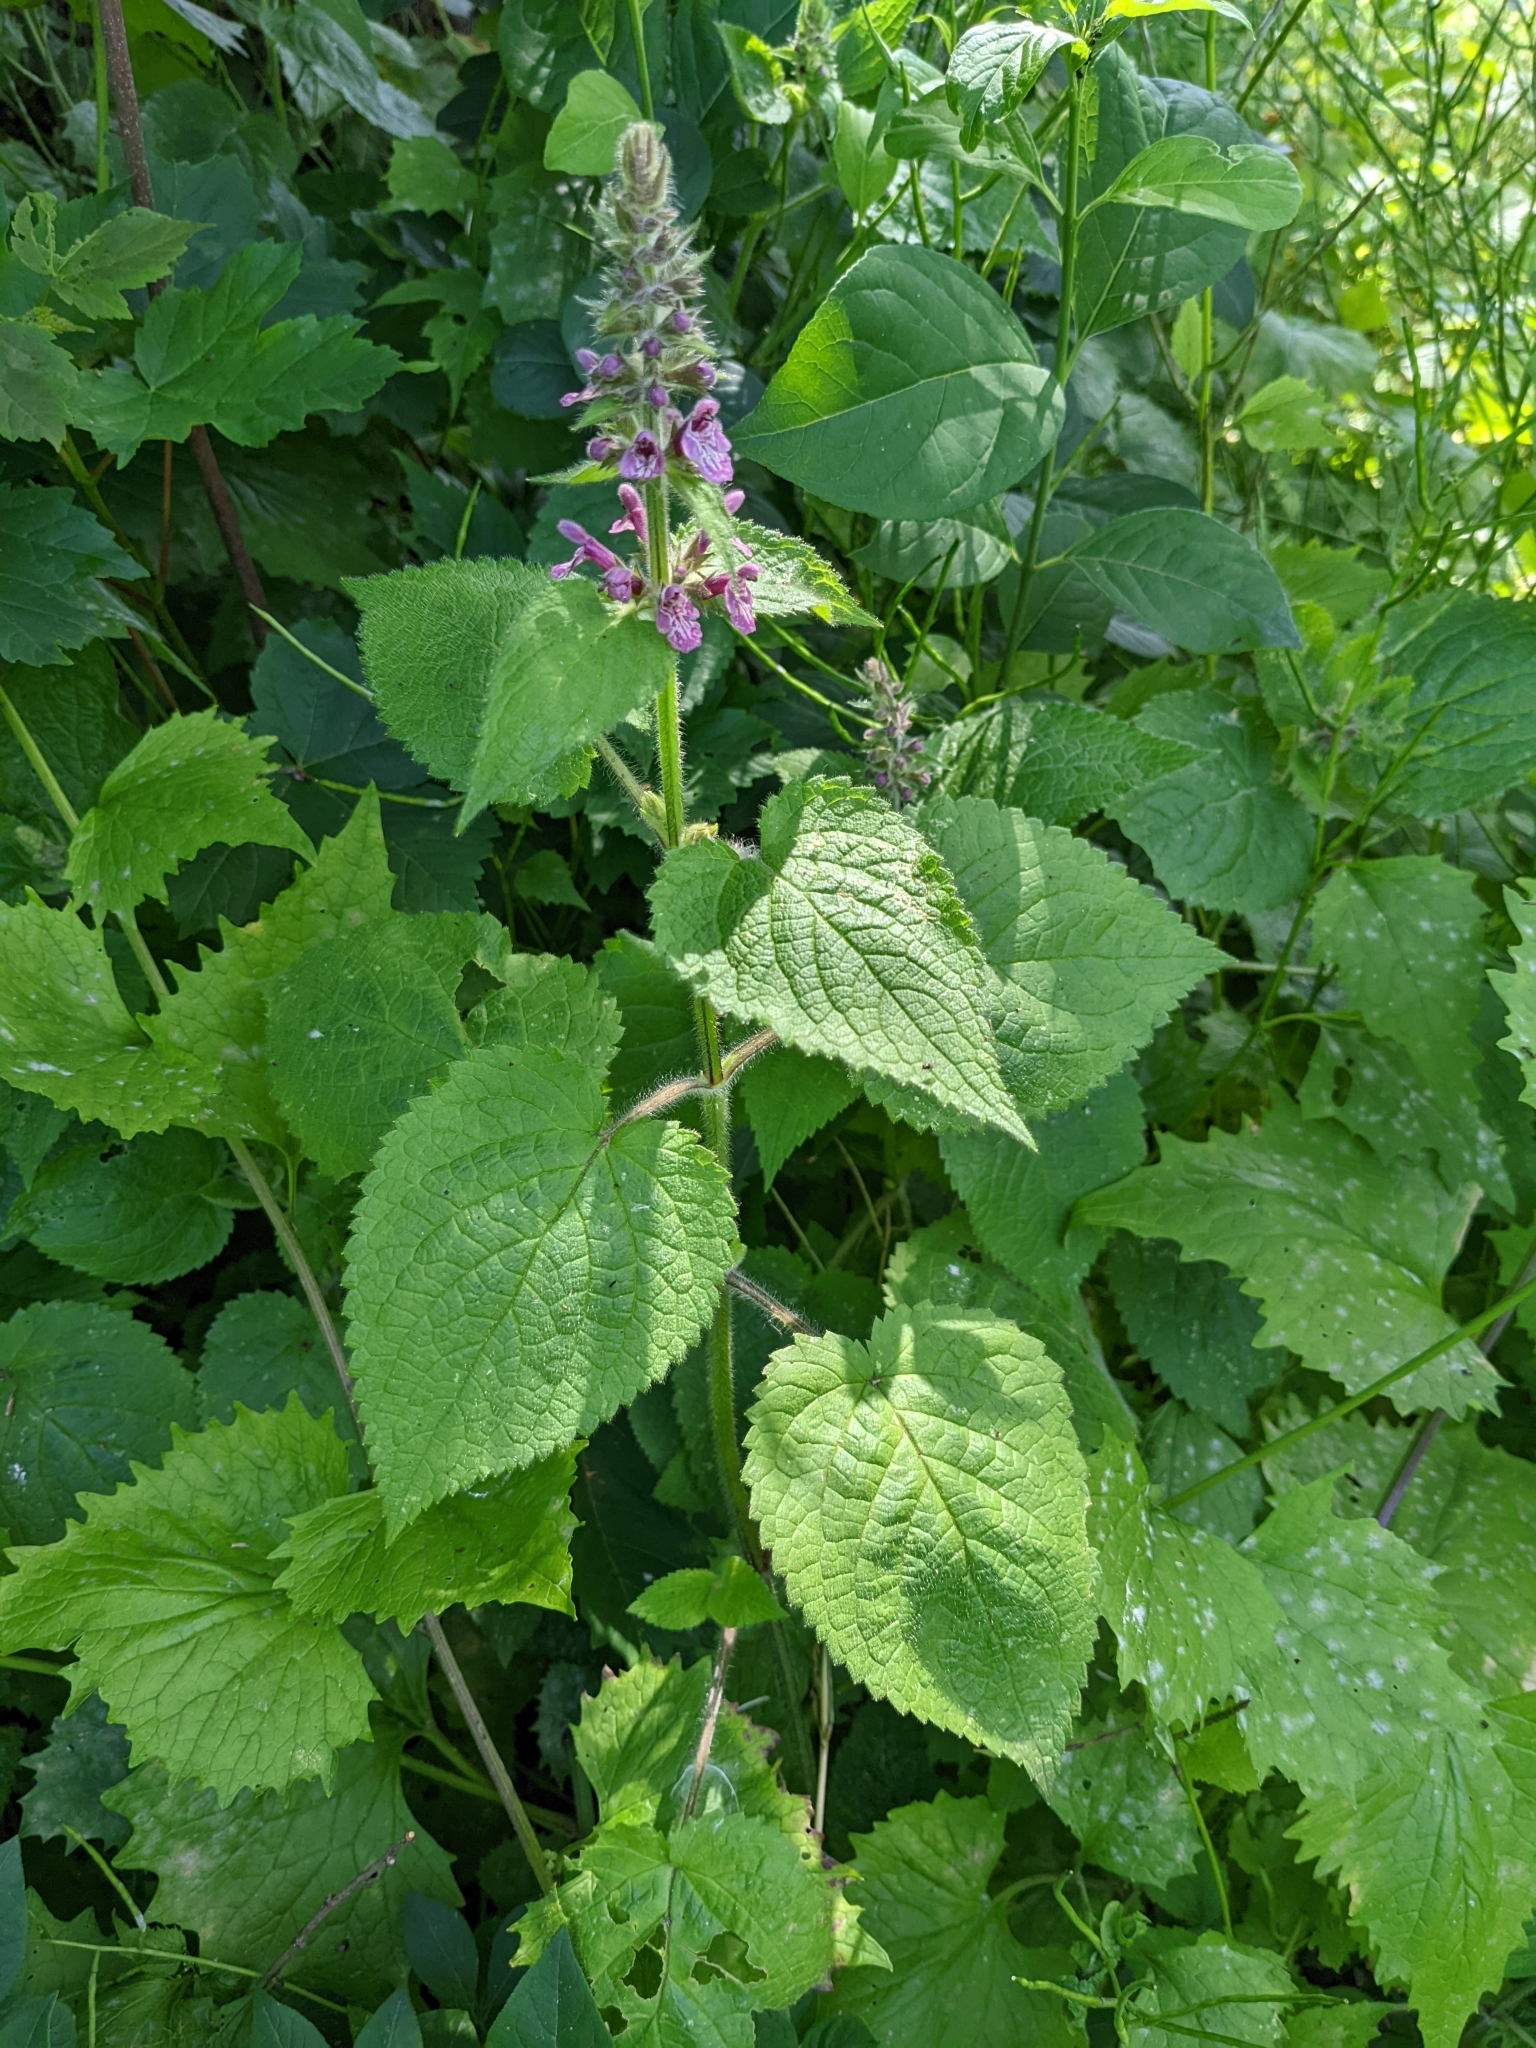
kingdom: Plantae
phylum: Tracheophyta
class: Magnoliopsida
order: Lamiales
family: Lamiaceae
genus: Stachys
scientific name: Stachys sylvatica
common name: Hedge woundwort
